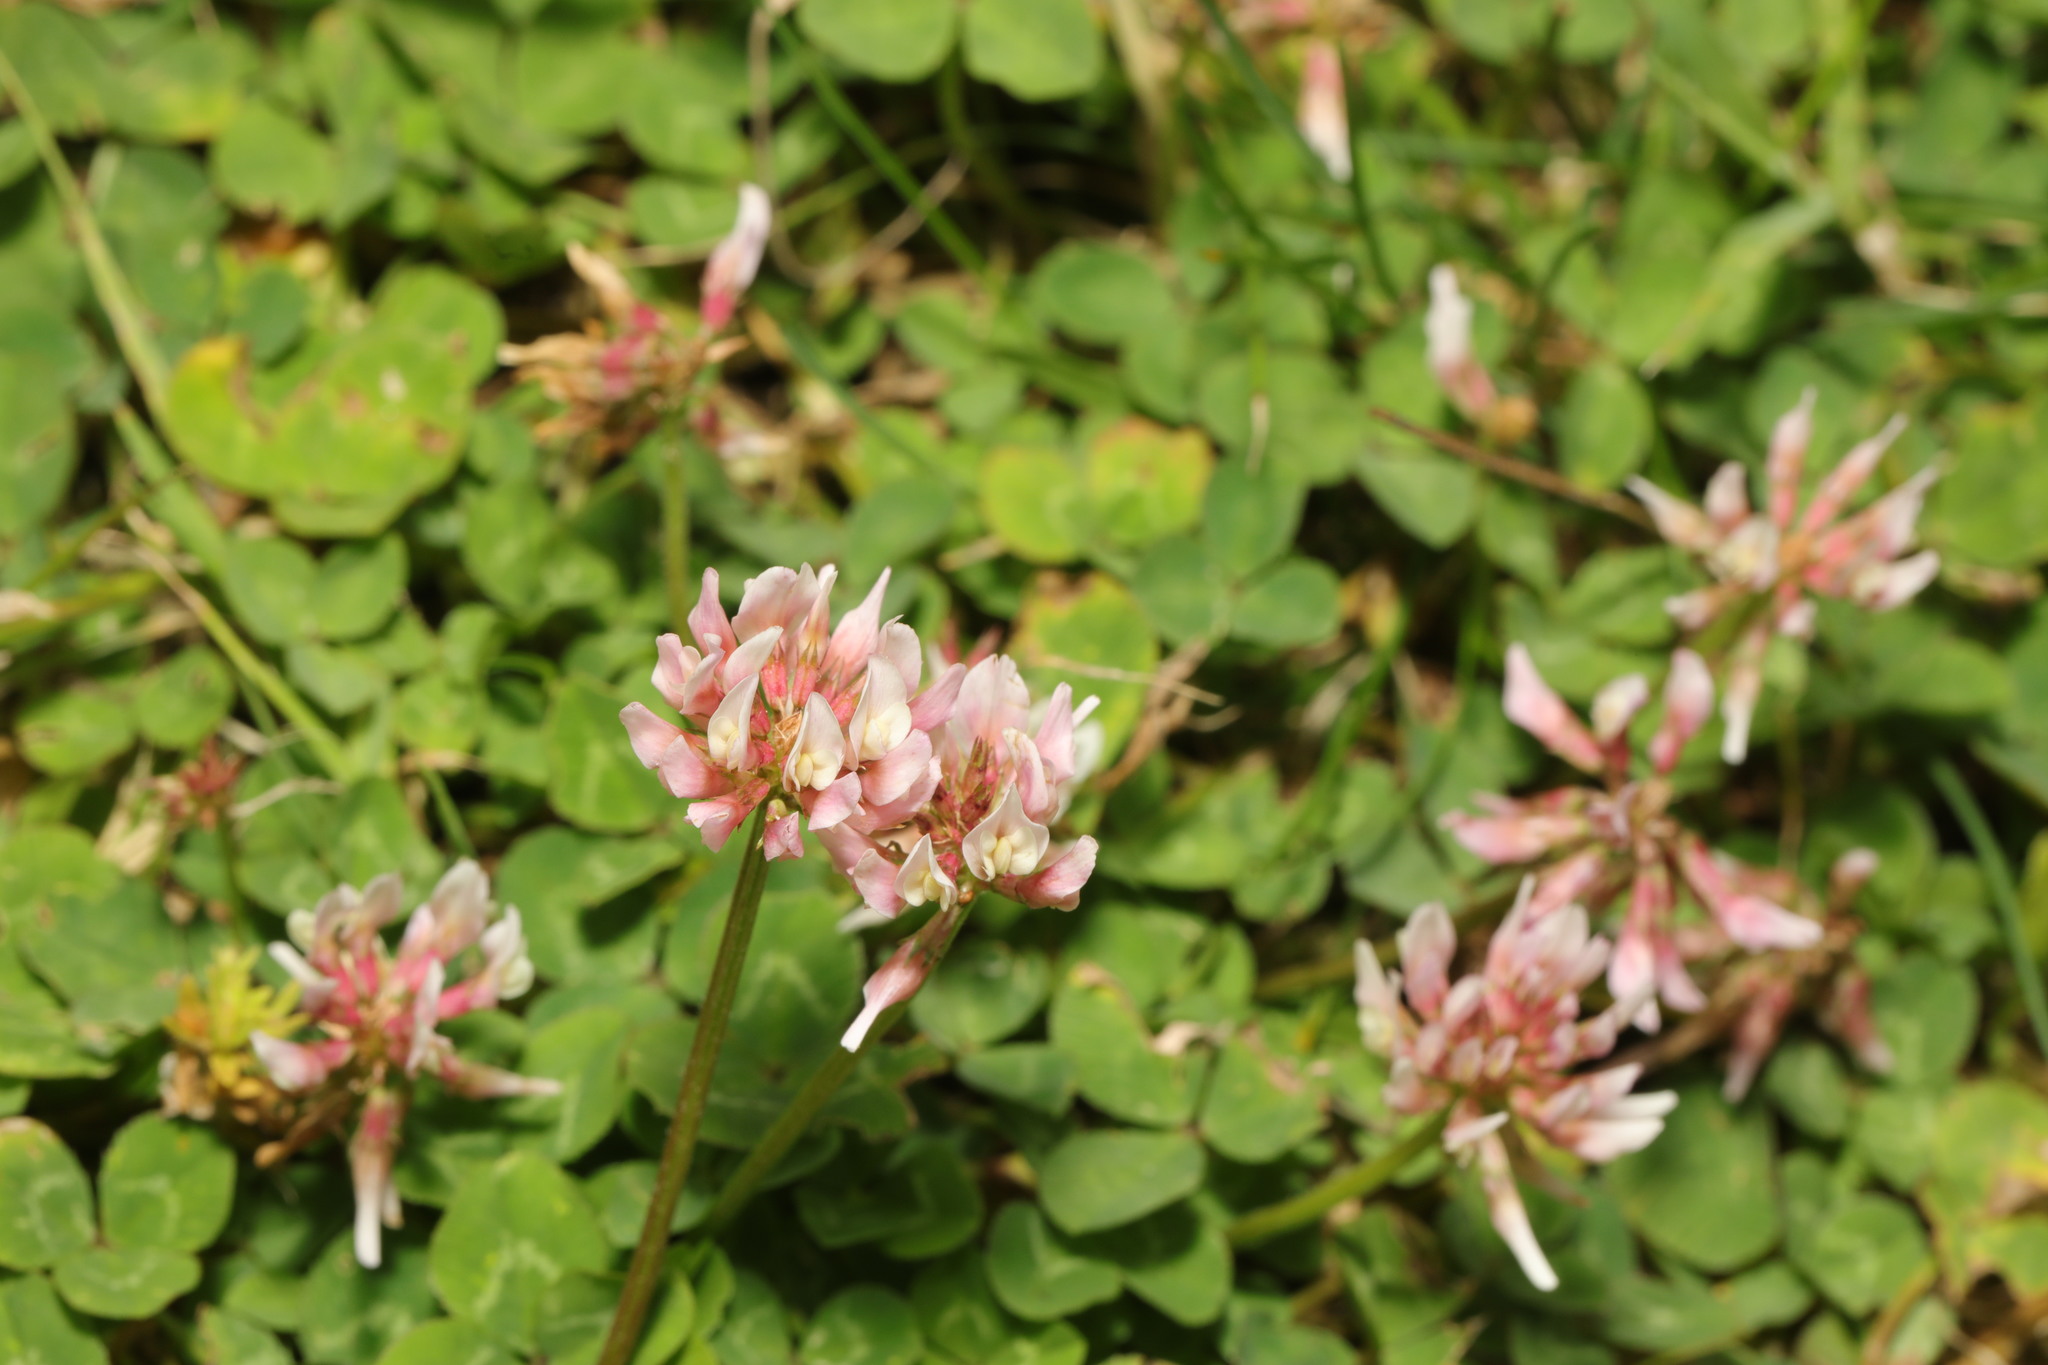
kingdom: Plantae
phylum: Tracheophyta
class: Magnoliopsida
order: Fabales
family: Fabaceae
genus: Trifolium
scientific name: Trifolium repens
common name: White clover
